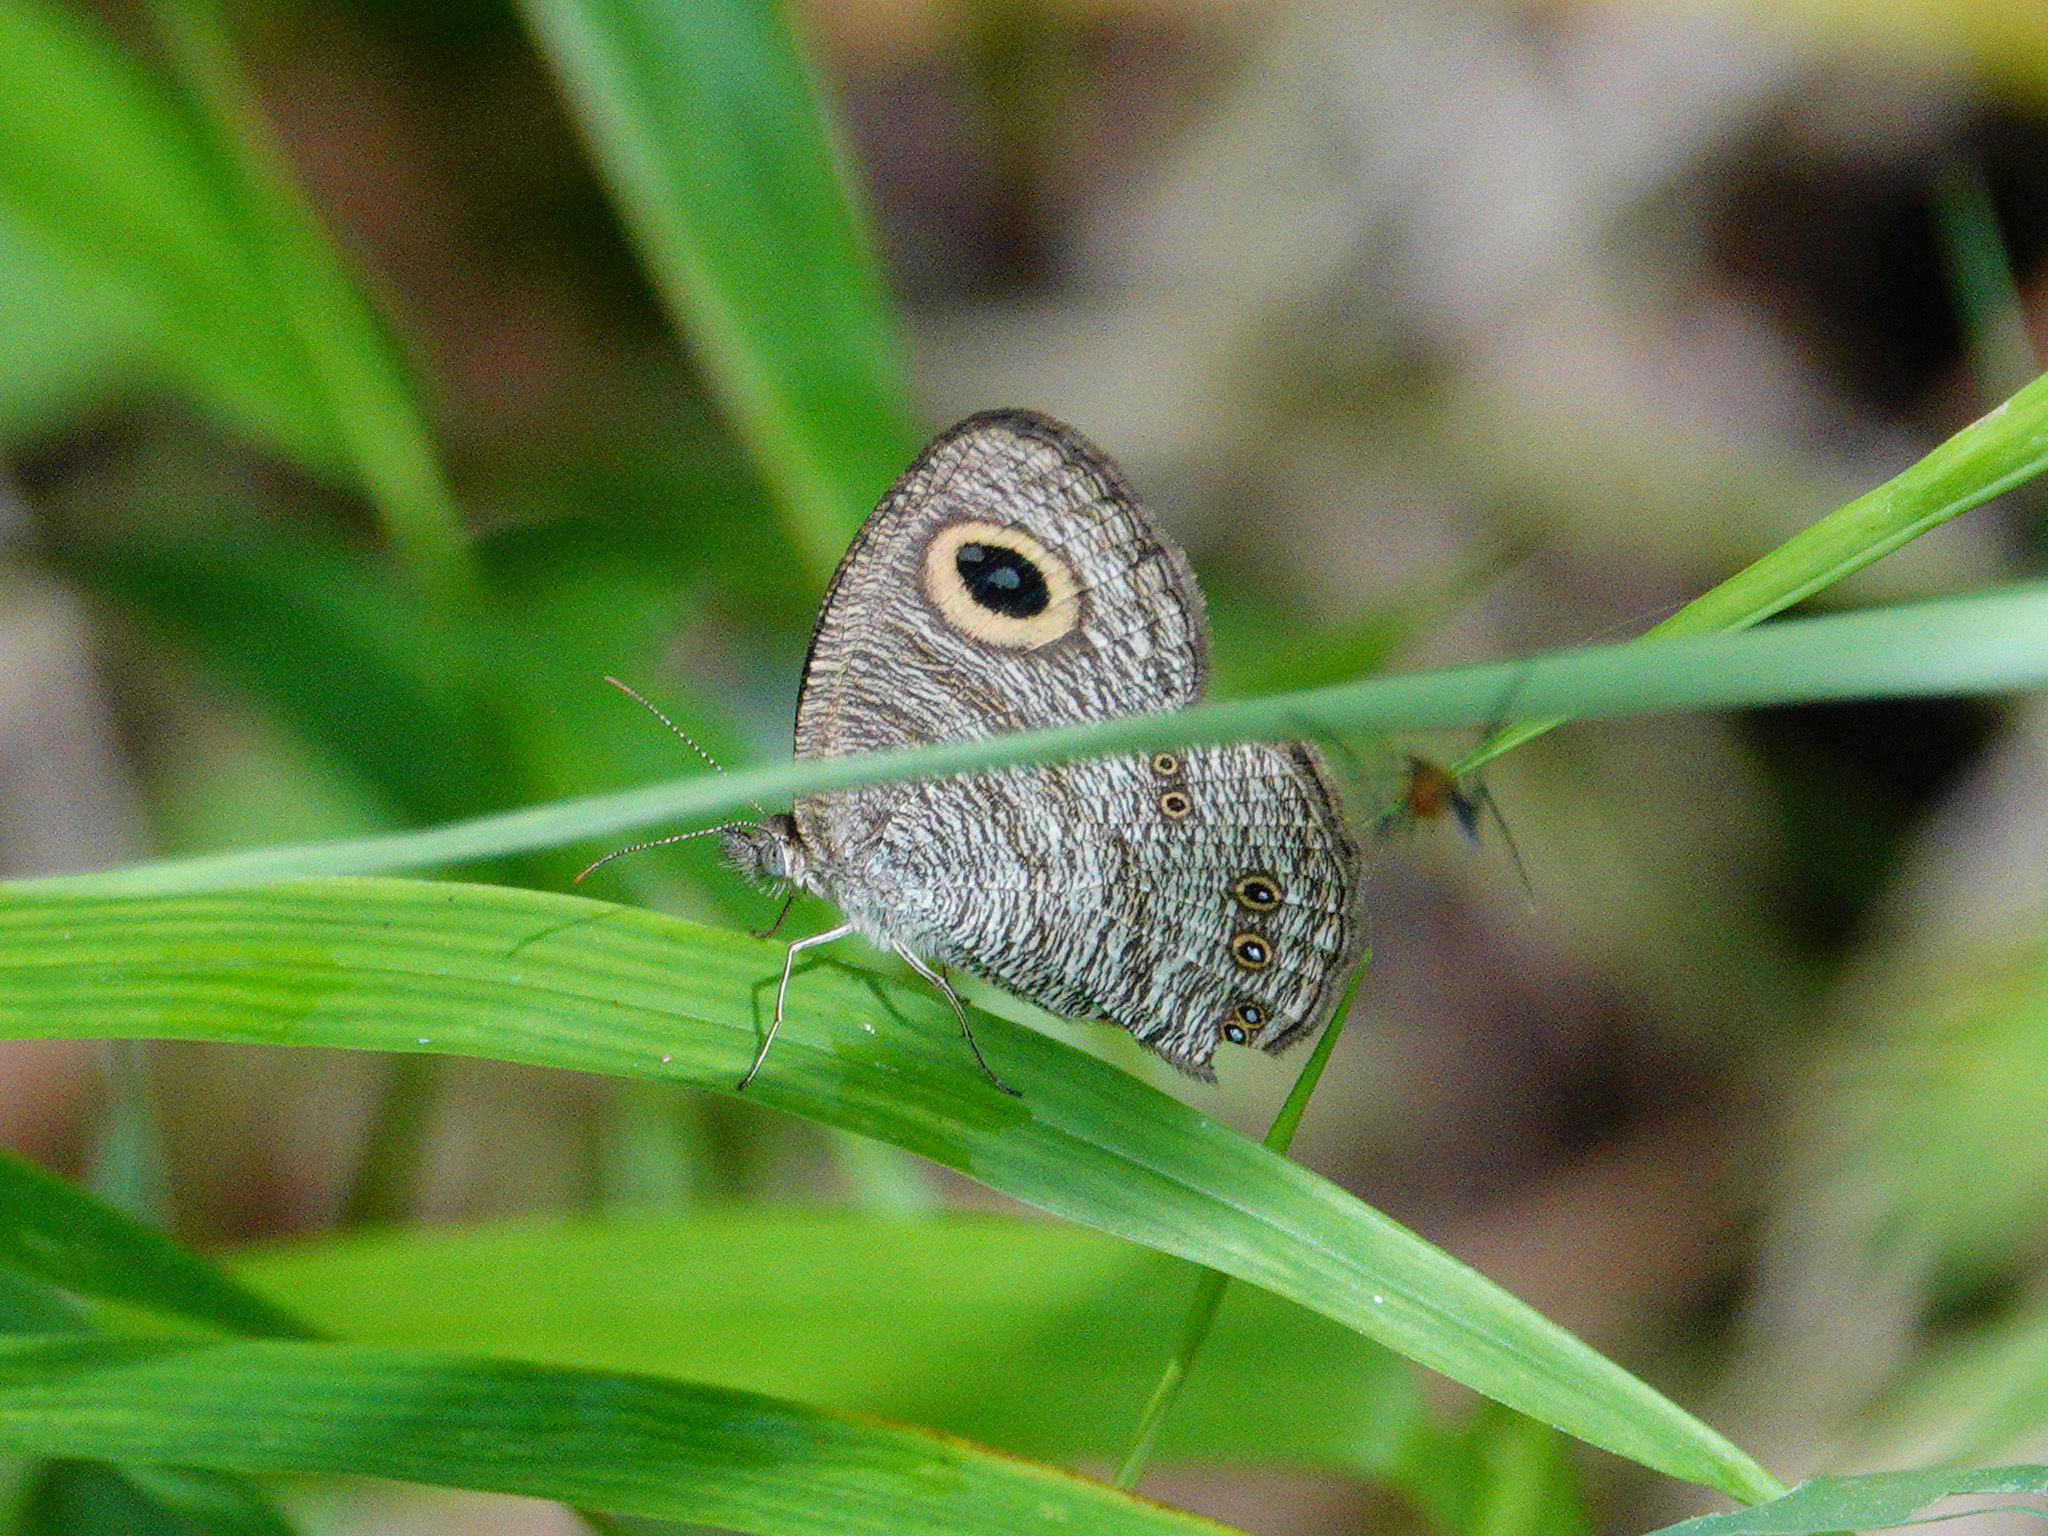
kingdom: Animalia
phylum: Arthropoda
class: Insecta
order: Lepidoptera
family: Nymphalidae
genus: Ypthima
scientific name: Ypthima baldus
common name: Common five-ring
